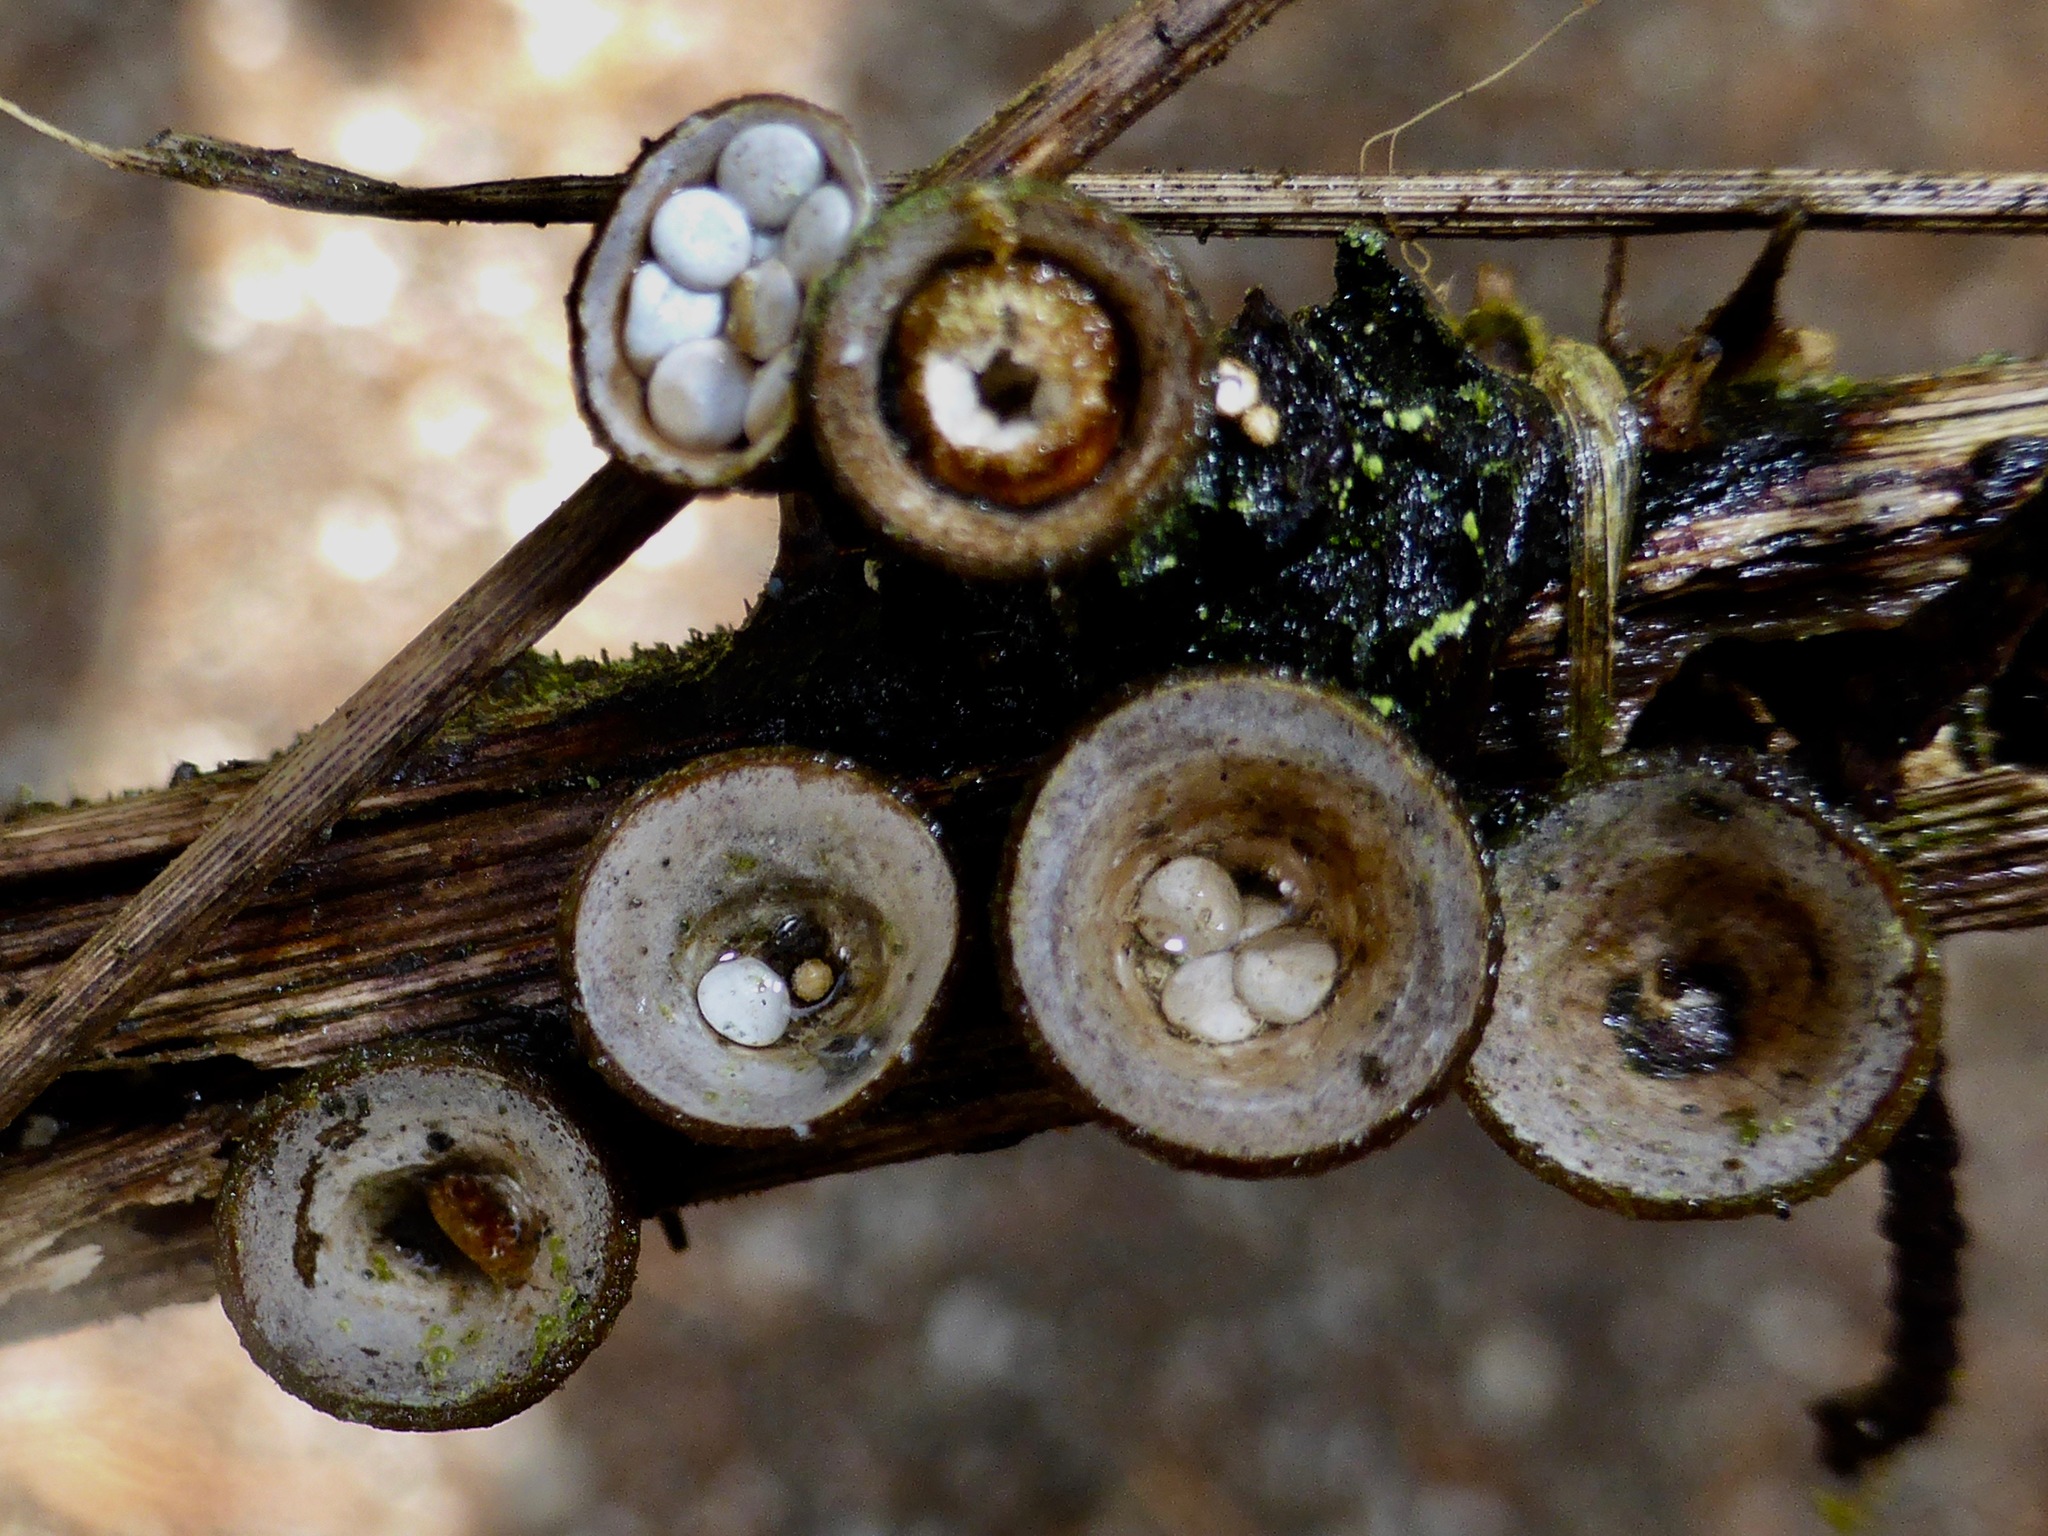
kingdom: Fungi
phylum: Basidiomycota
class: Agaricomycetes
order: Agaricales
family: Nidulariaceae
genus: Crucibulum
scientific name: Crucibulum laeve
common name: Common bird's nest
